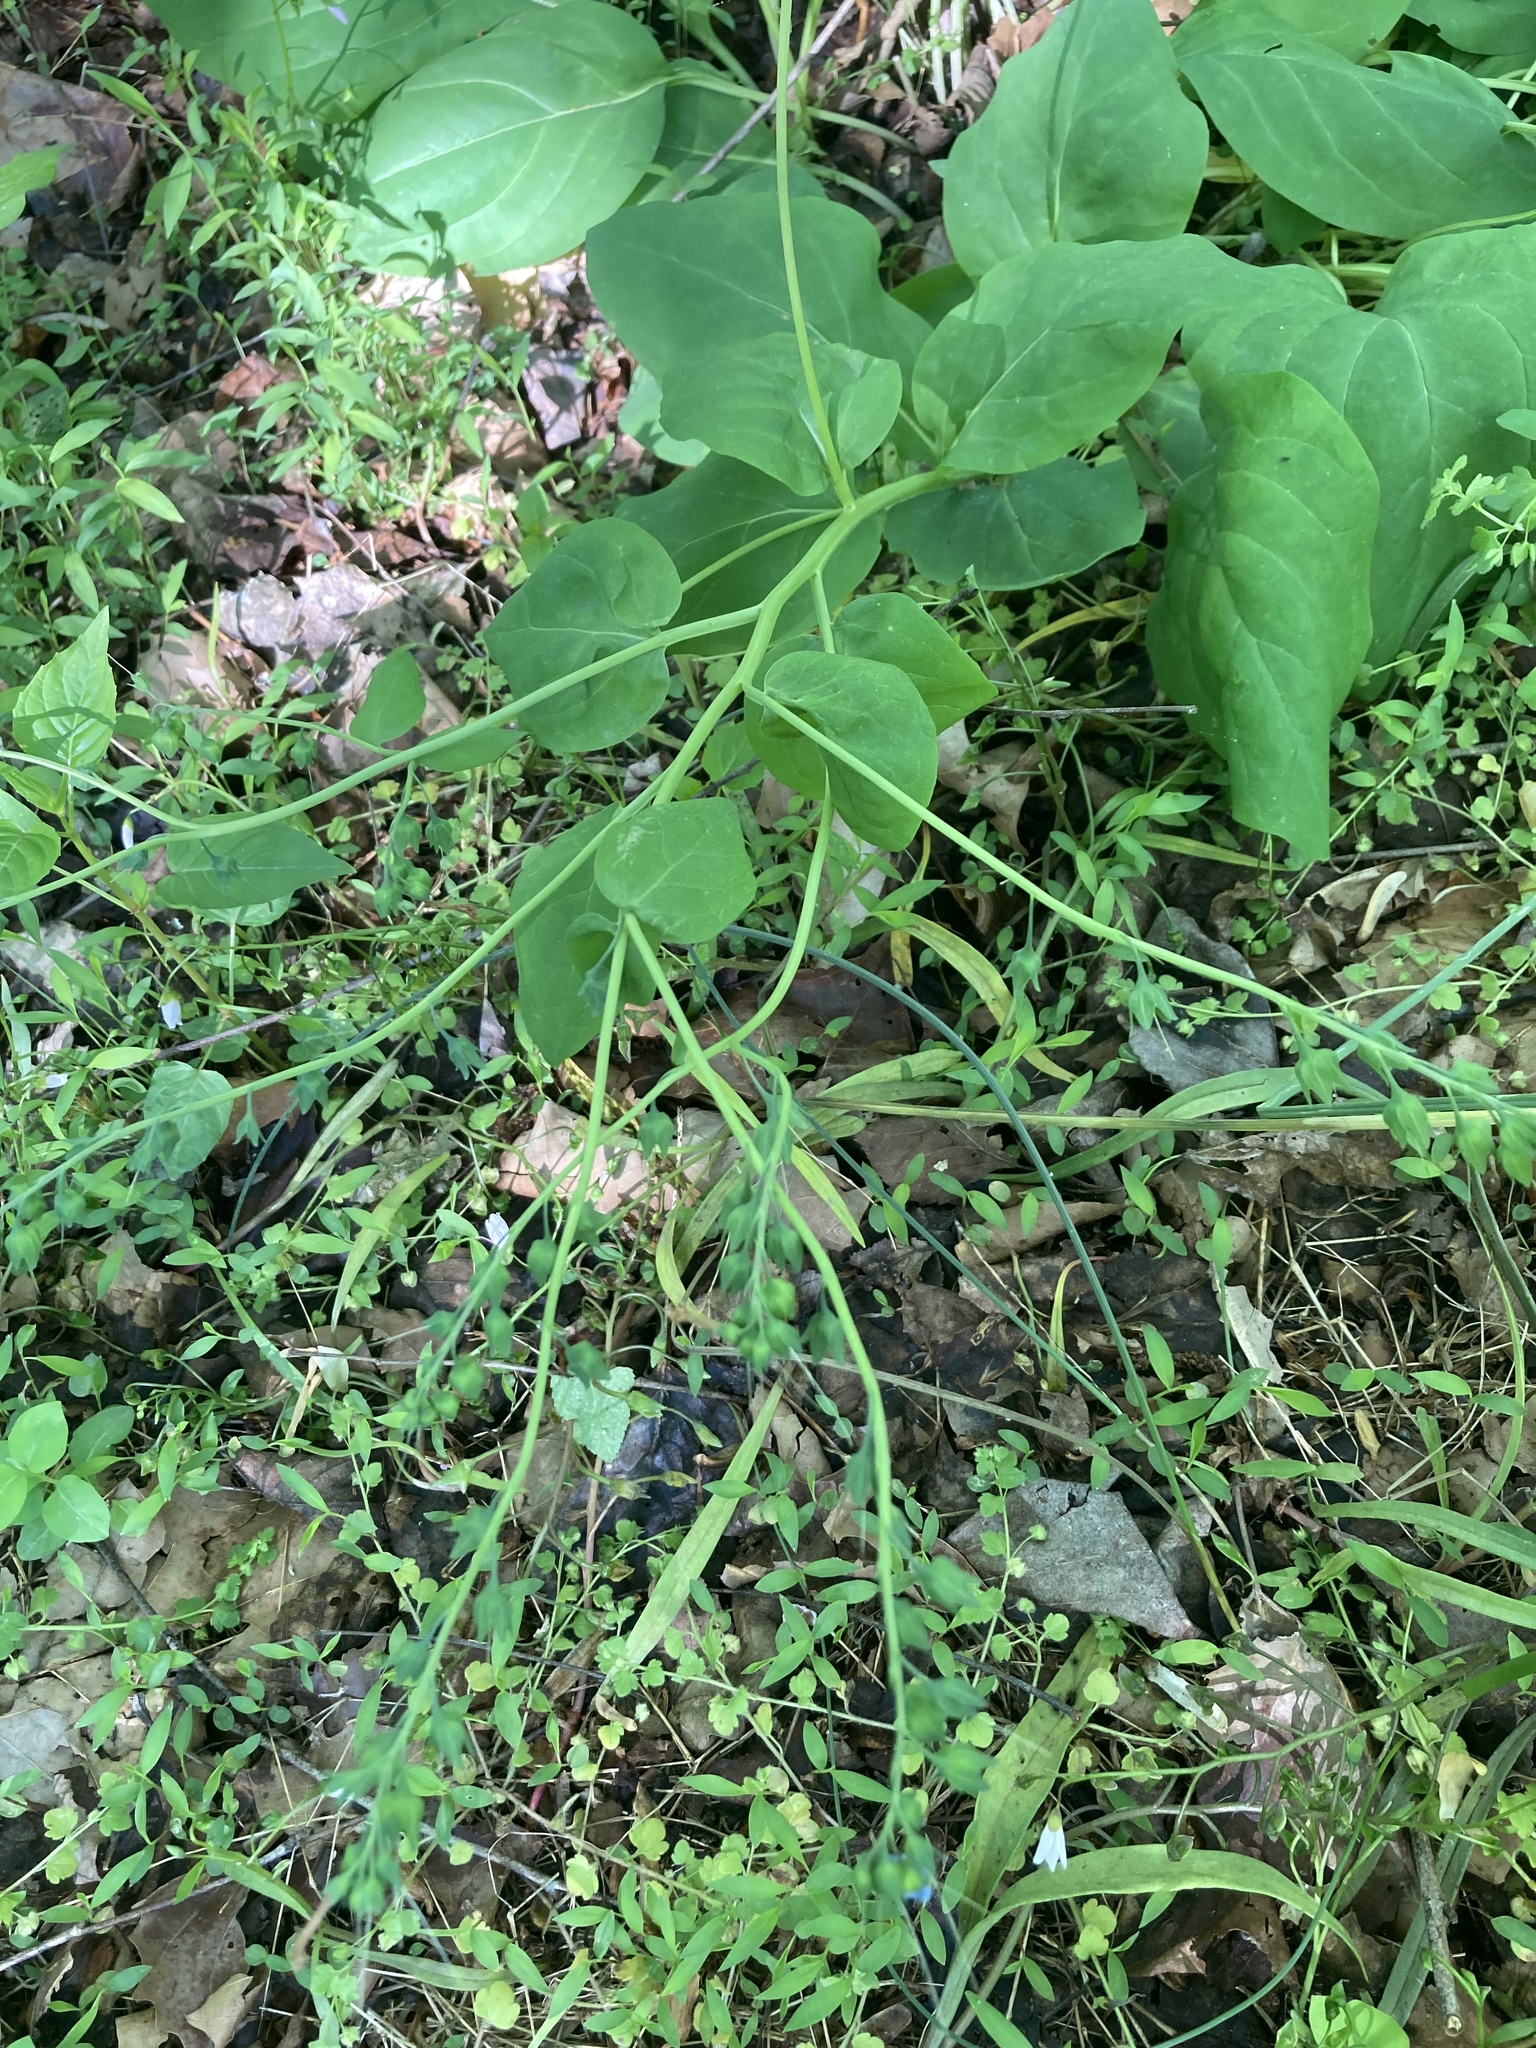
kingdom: Plantae
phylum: Tracheophyta
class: Magnoliopsida
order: Boraginales
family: Boraginaceae
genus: Mertensia
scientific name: Mertensia virginica
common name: Virginia bluebells
